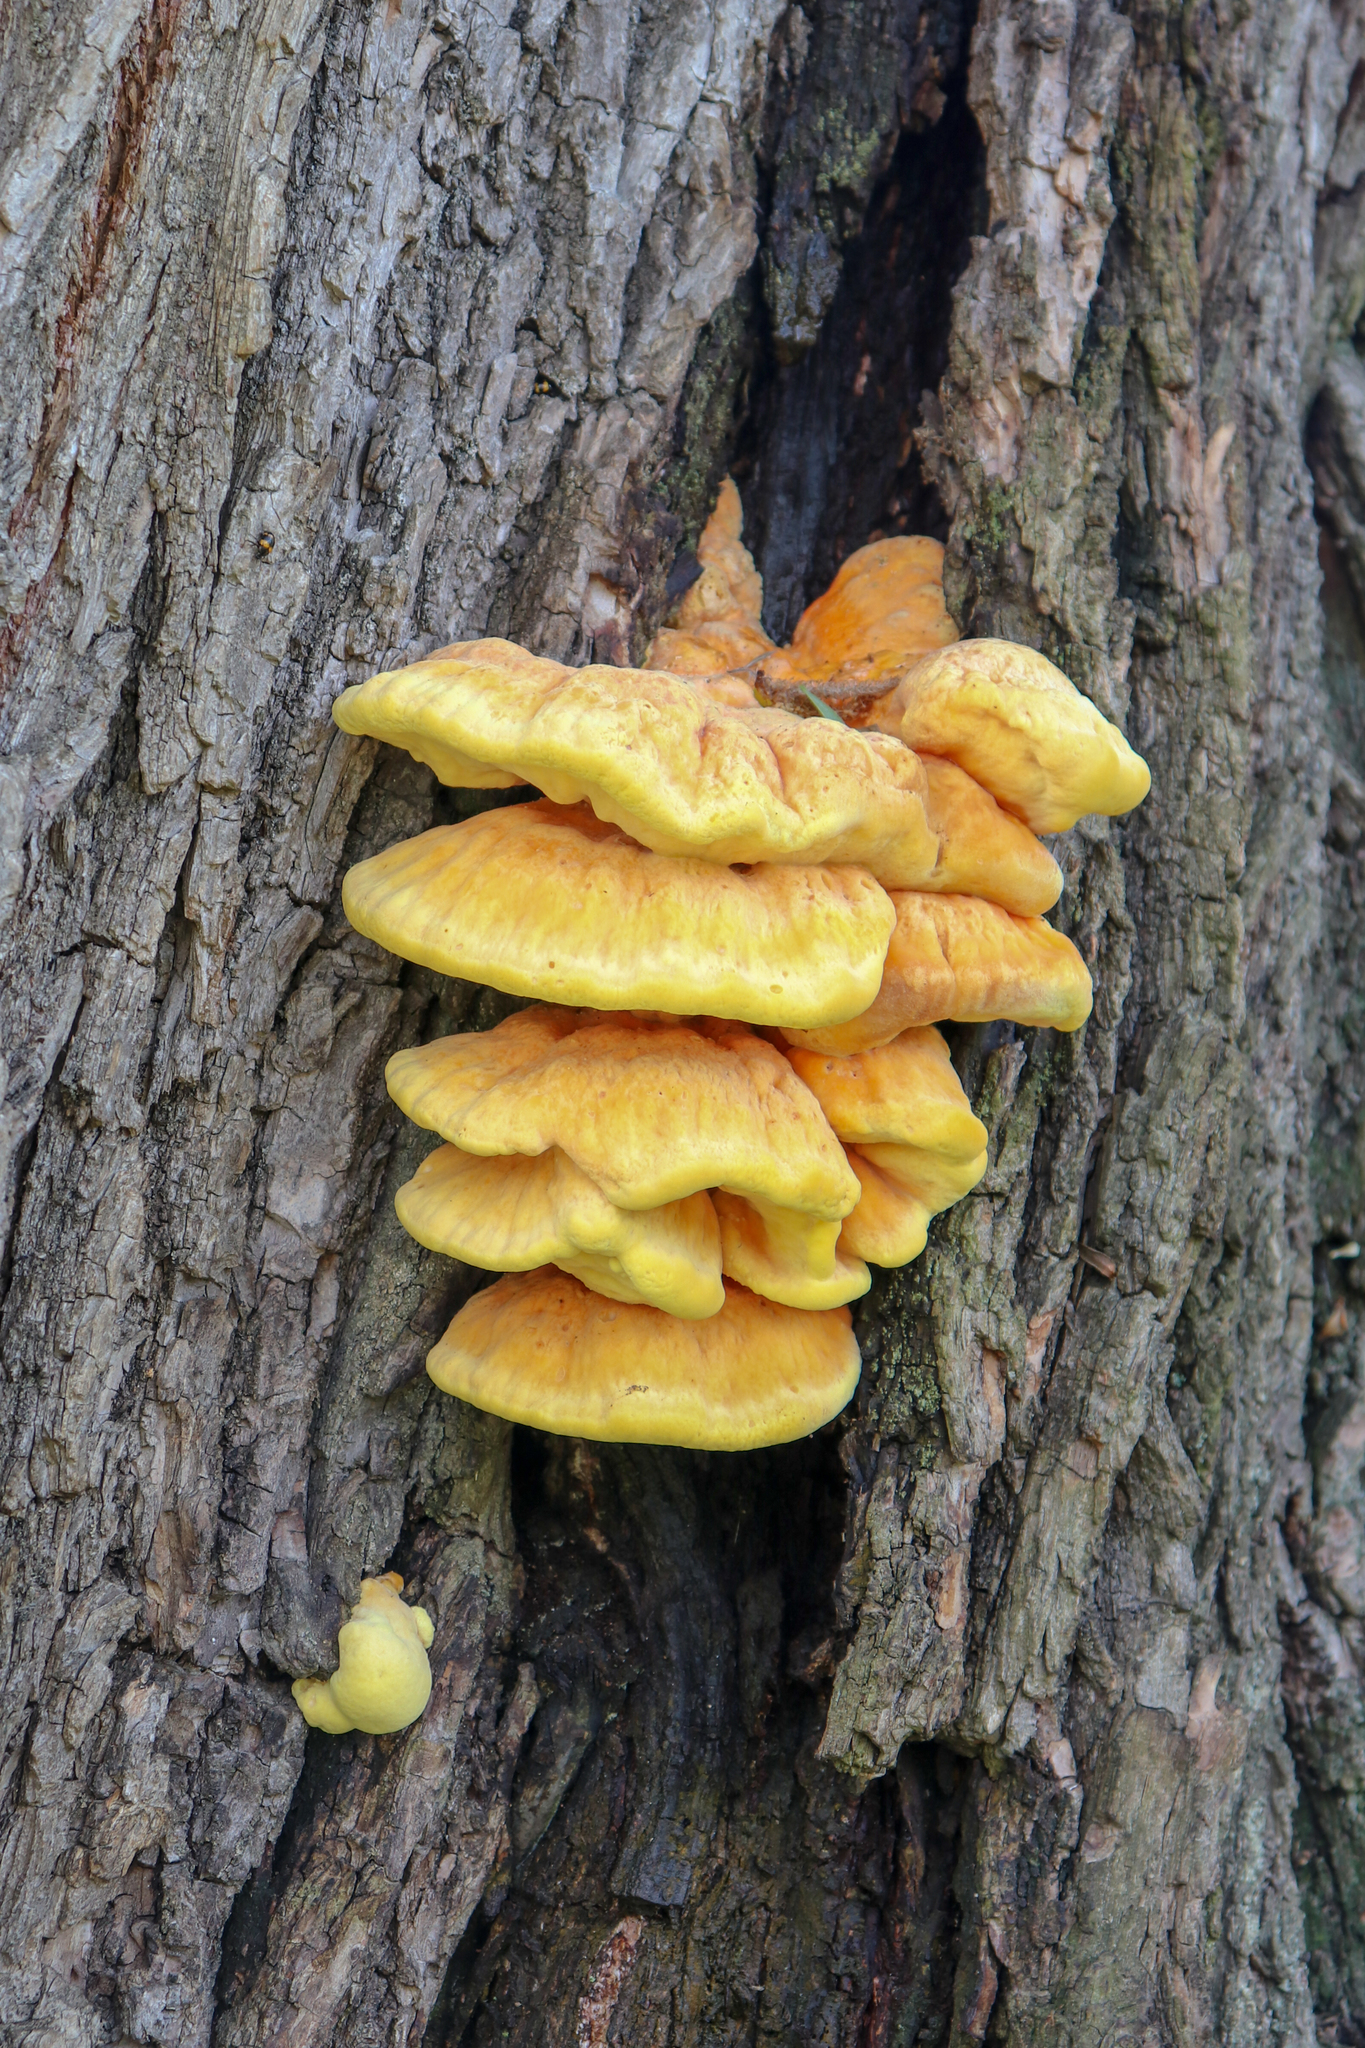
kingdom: Fungi
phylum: Basidiomycota
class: Agaricomycetes
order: Polyporales
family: Laetiporaceae
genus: Laetiporus
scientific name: Laetiporus sulphureus
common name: Chicken of the woods
